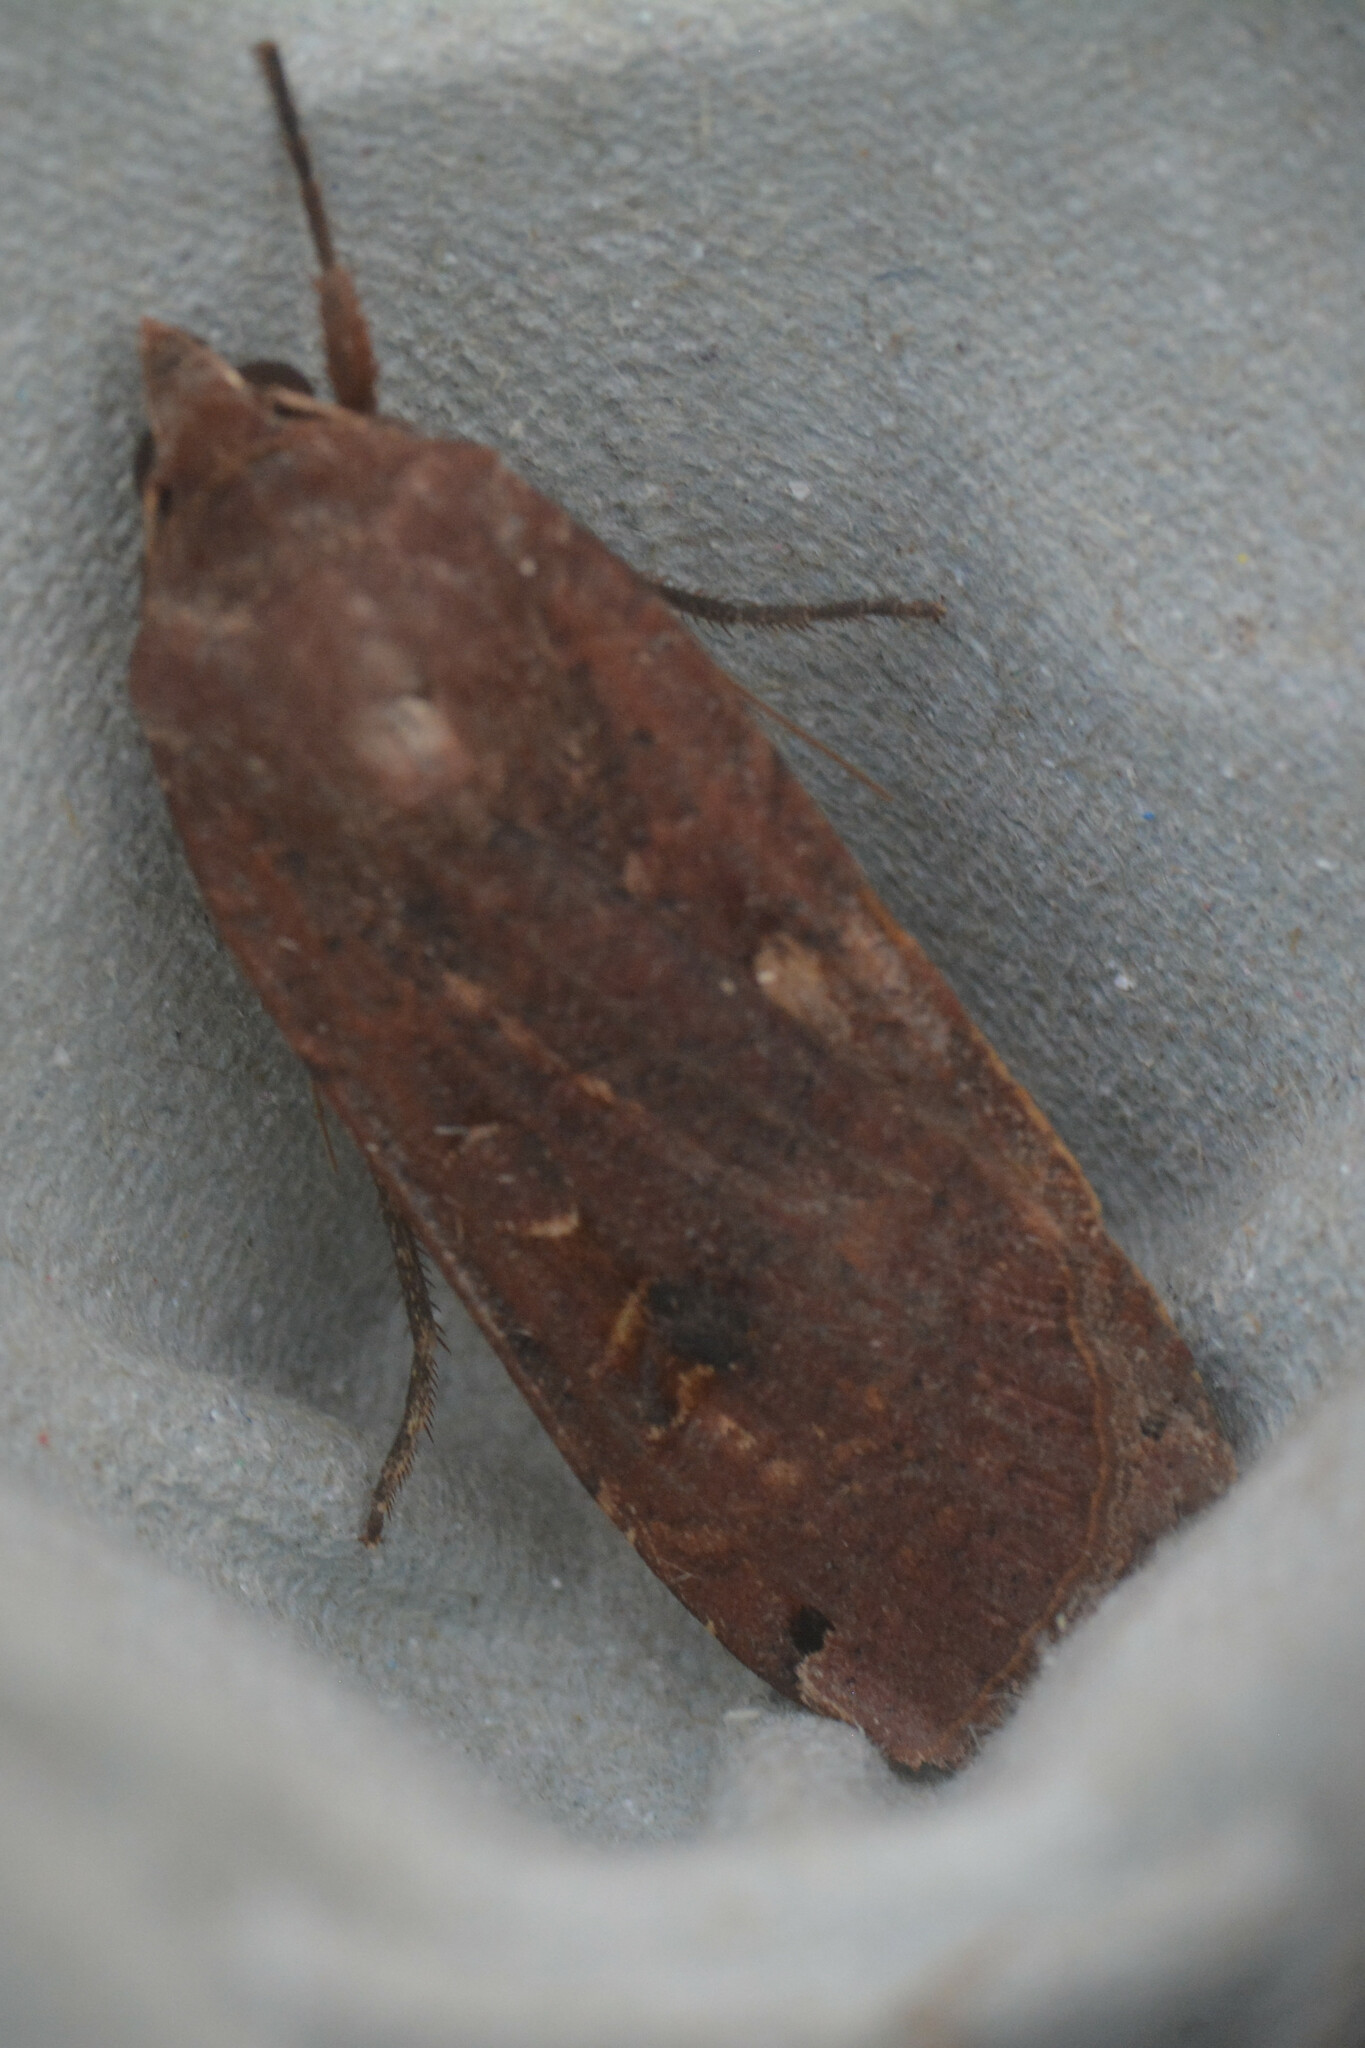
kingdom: Animalia
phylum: Arthropoda
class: Insecta
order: Lepidoptera
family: Noctuidae
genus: Noctua
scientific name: Noctua pronuba
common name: Large yellow underwing
